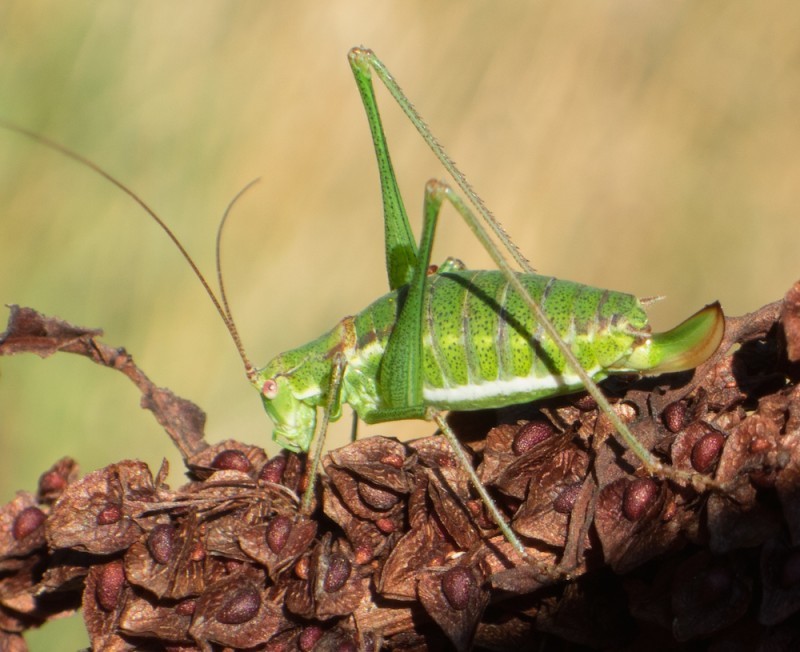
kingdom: Animalia
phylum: Arthropoda
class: Insecta
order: Orthoptera
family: Tettigoniidae
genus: Leptophyes
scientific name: Leptophyes albovittata
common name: Striped bush-cricket
